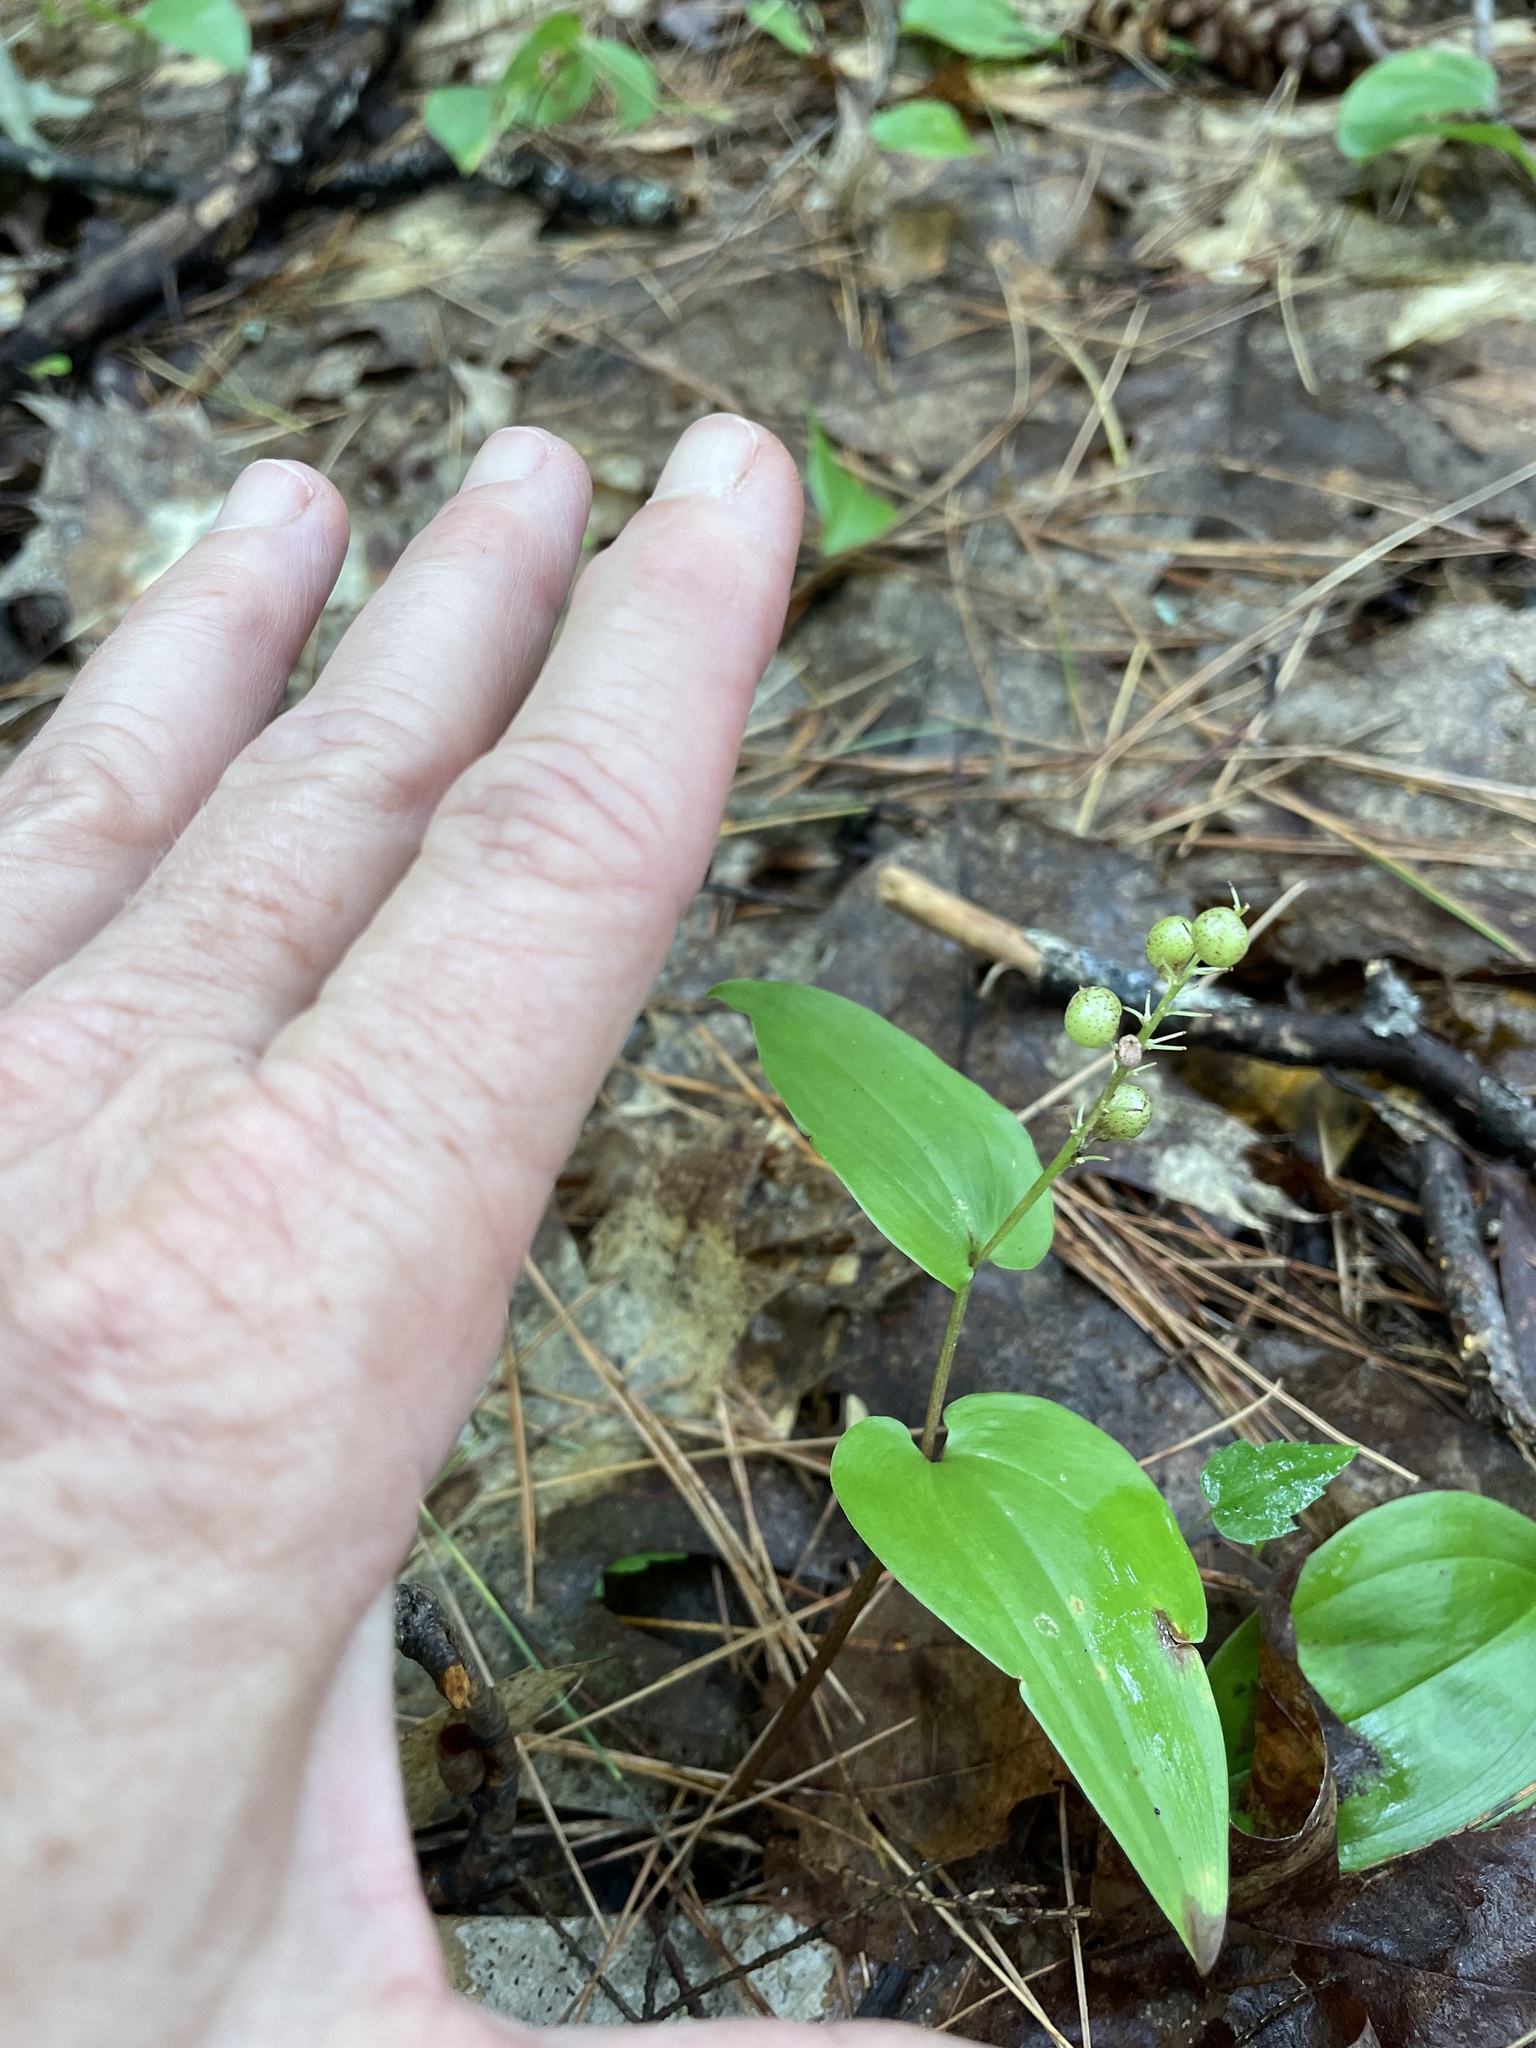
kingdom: Plantae
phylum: Tracheophyta
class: Liliopsida
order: Asparagales
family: Asparagaceae
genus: Maianthemum
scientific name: Maianthemum canadense
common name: False lily-of-the-valley
